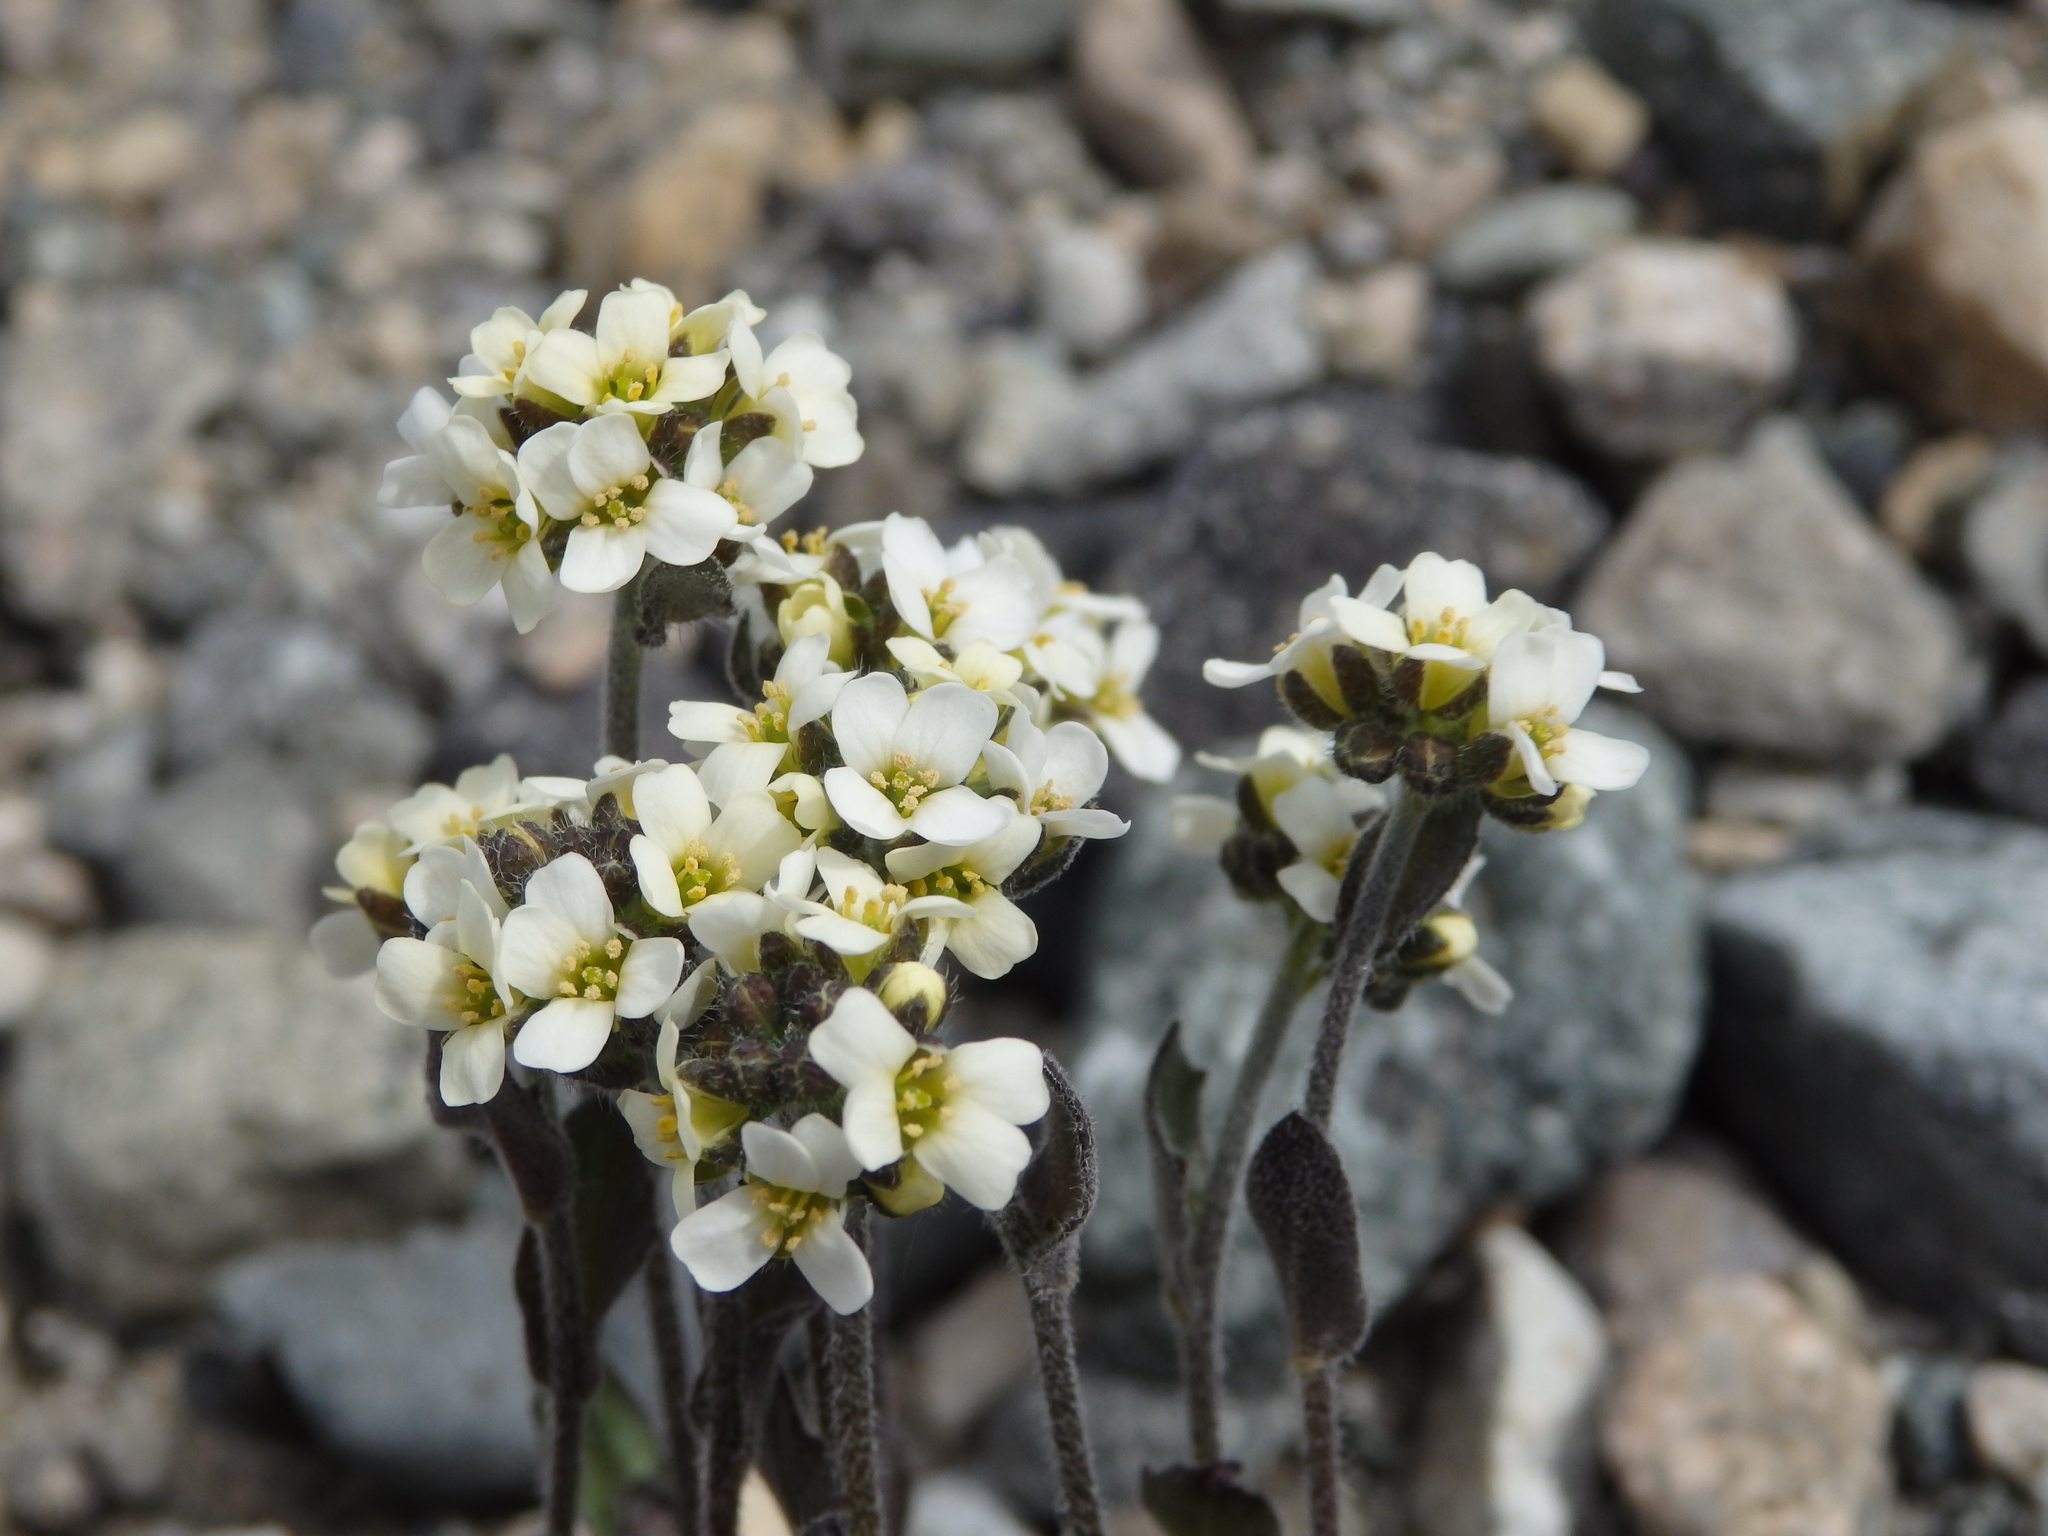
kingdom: Plantae
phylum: Tracheophyta
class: Magnoliopsida
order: Brassicales
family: Brassicaceae
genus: Draba
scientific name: Draba borealis
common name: Boreal draba
